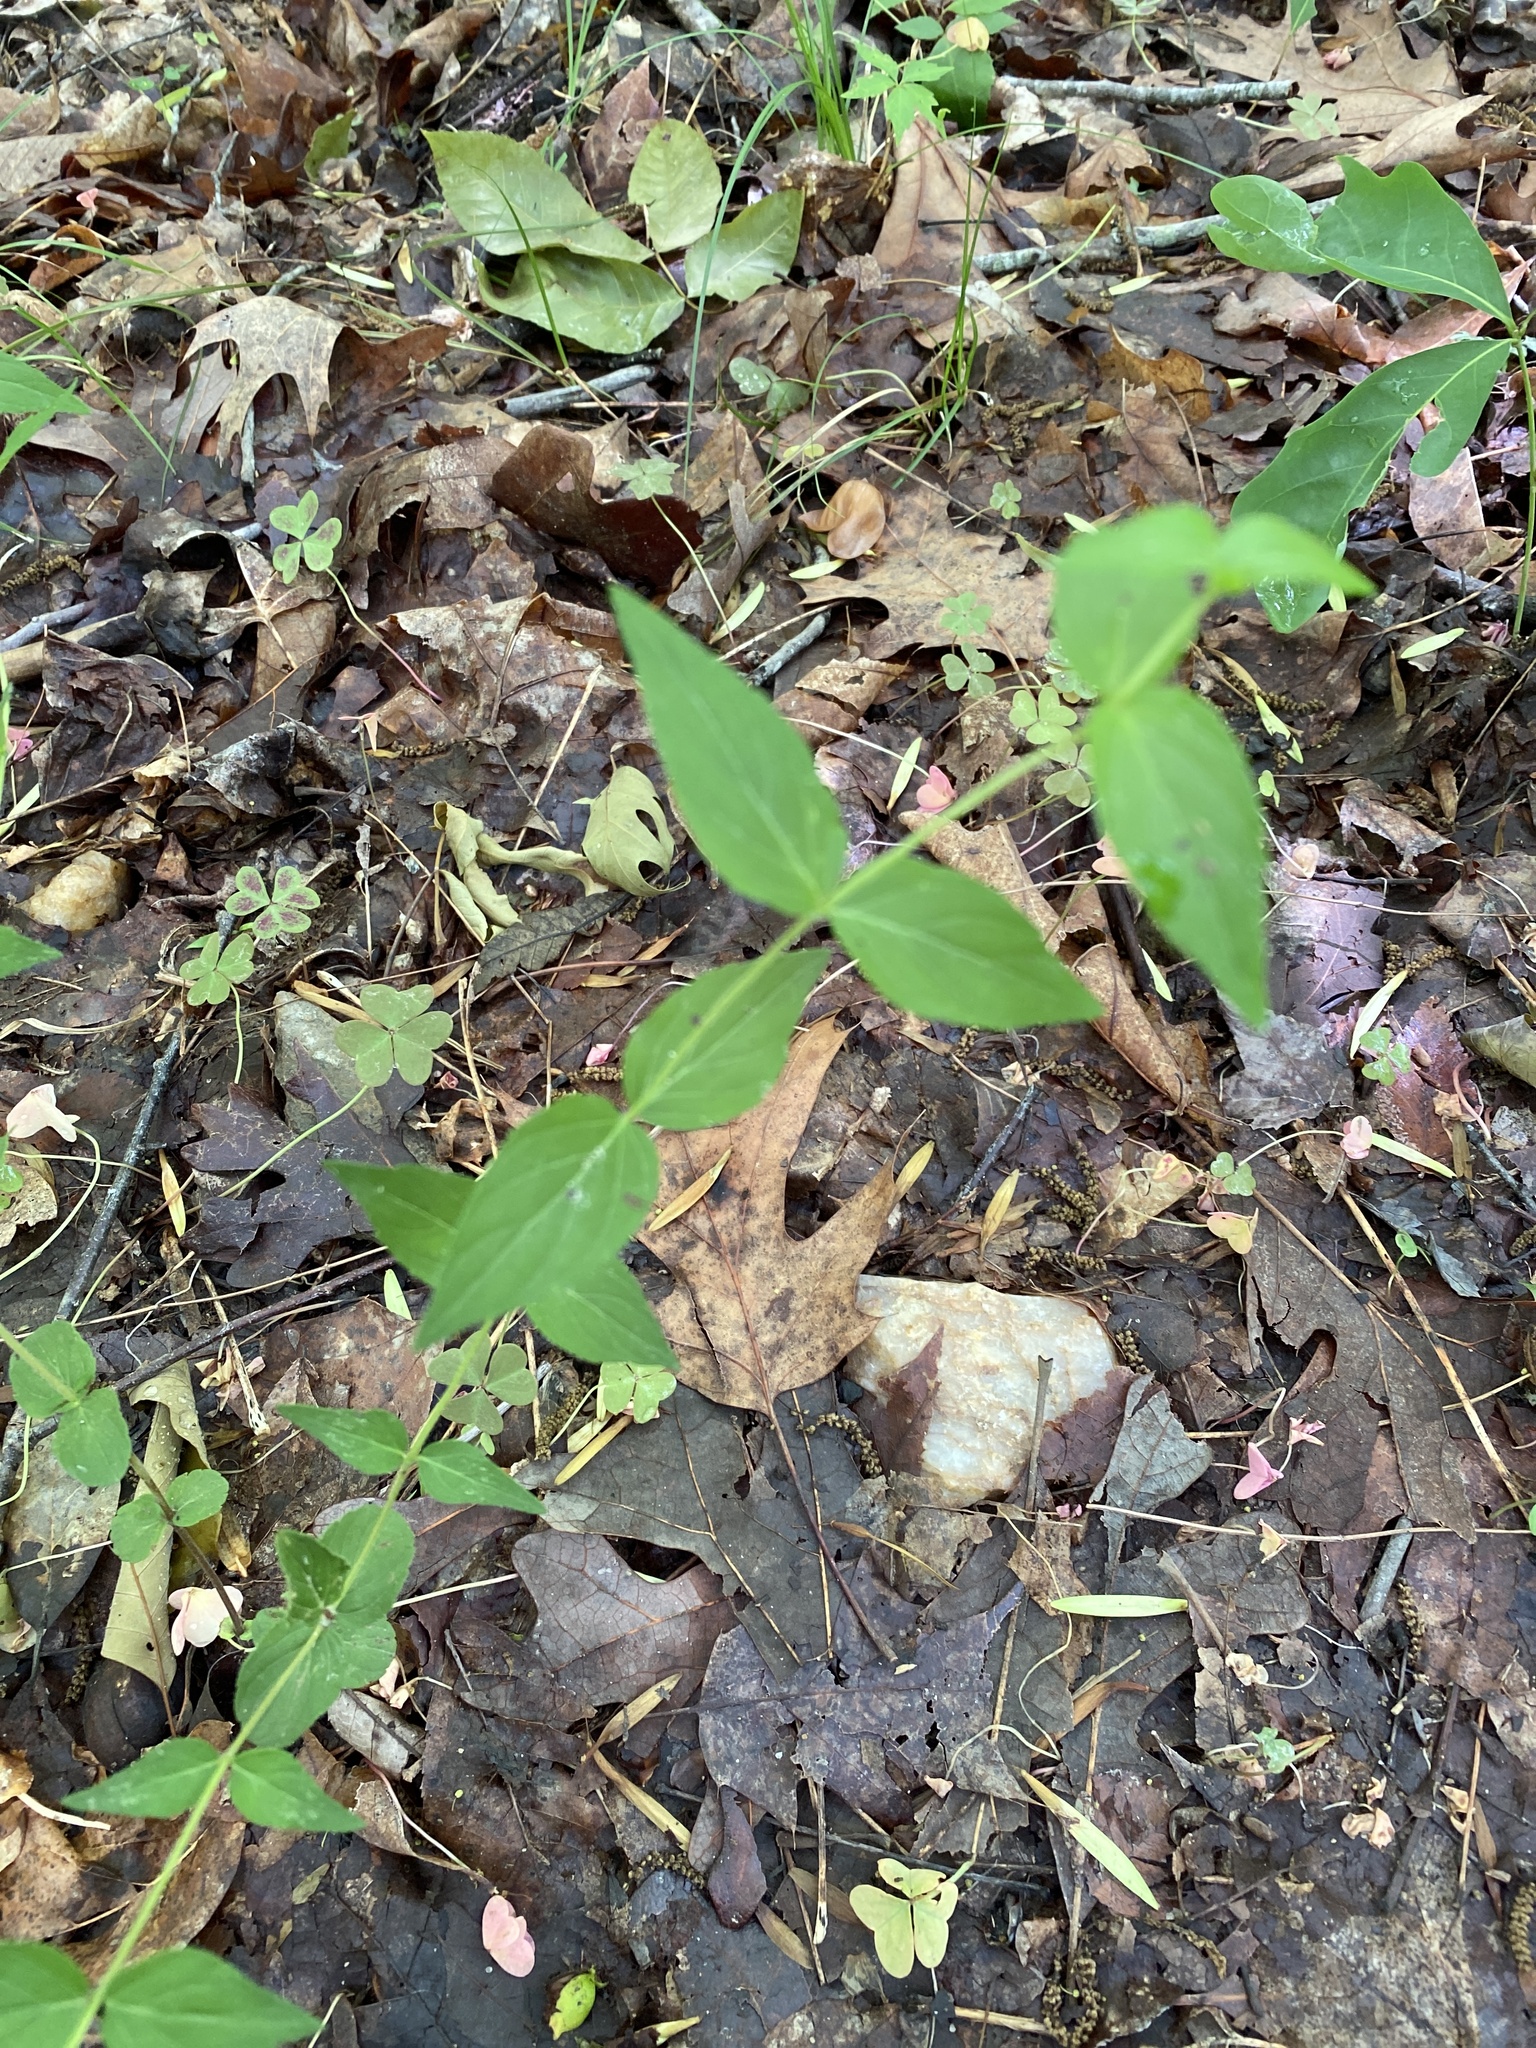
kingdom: Plantae
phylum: Tracheophyta
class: Magnoliopsida
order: Lamiales
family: Lamiaceae
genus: Cunila
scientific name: Cunila origanoides
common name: American dittany
